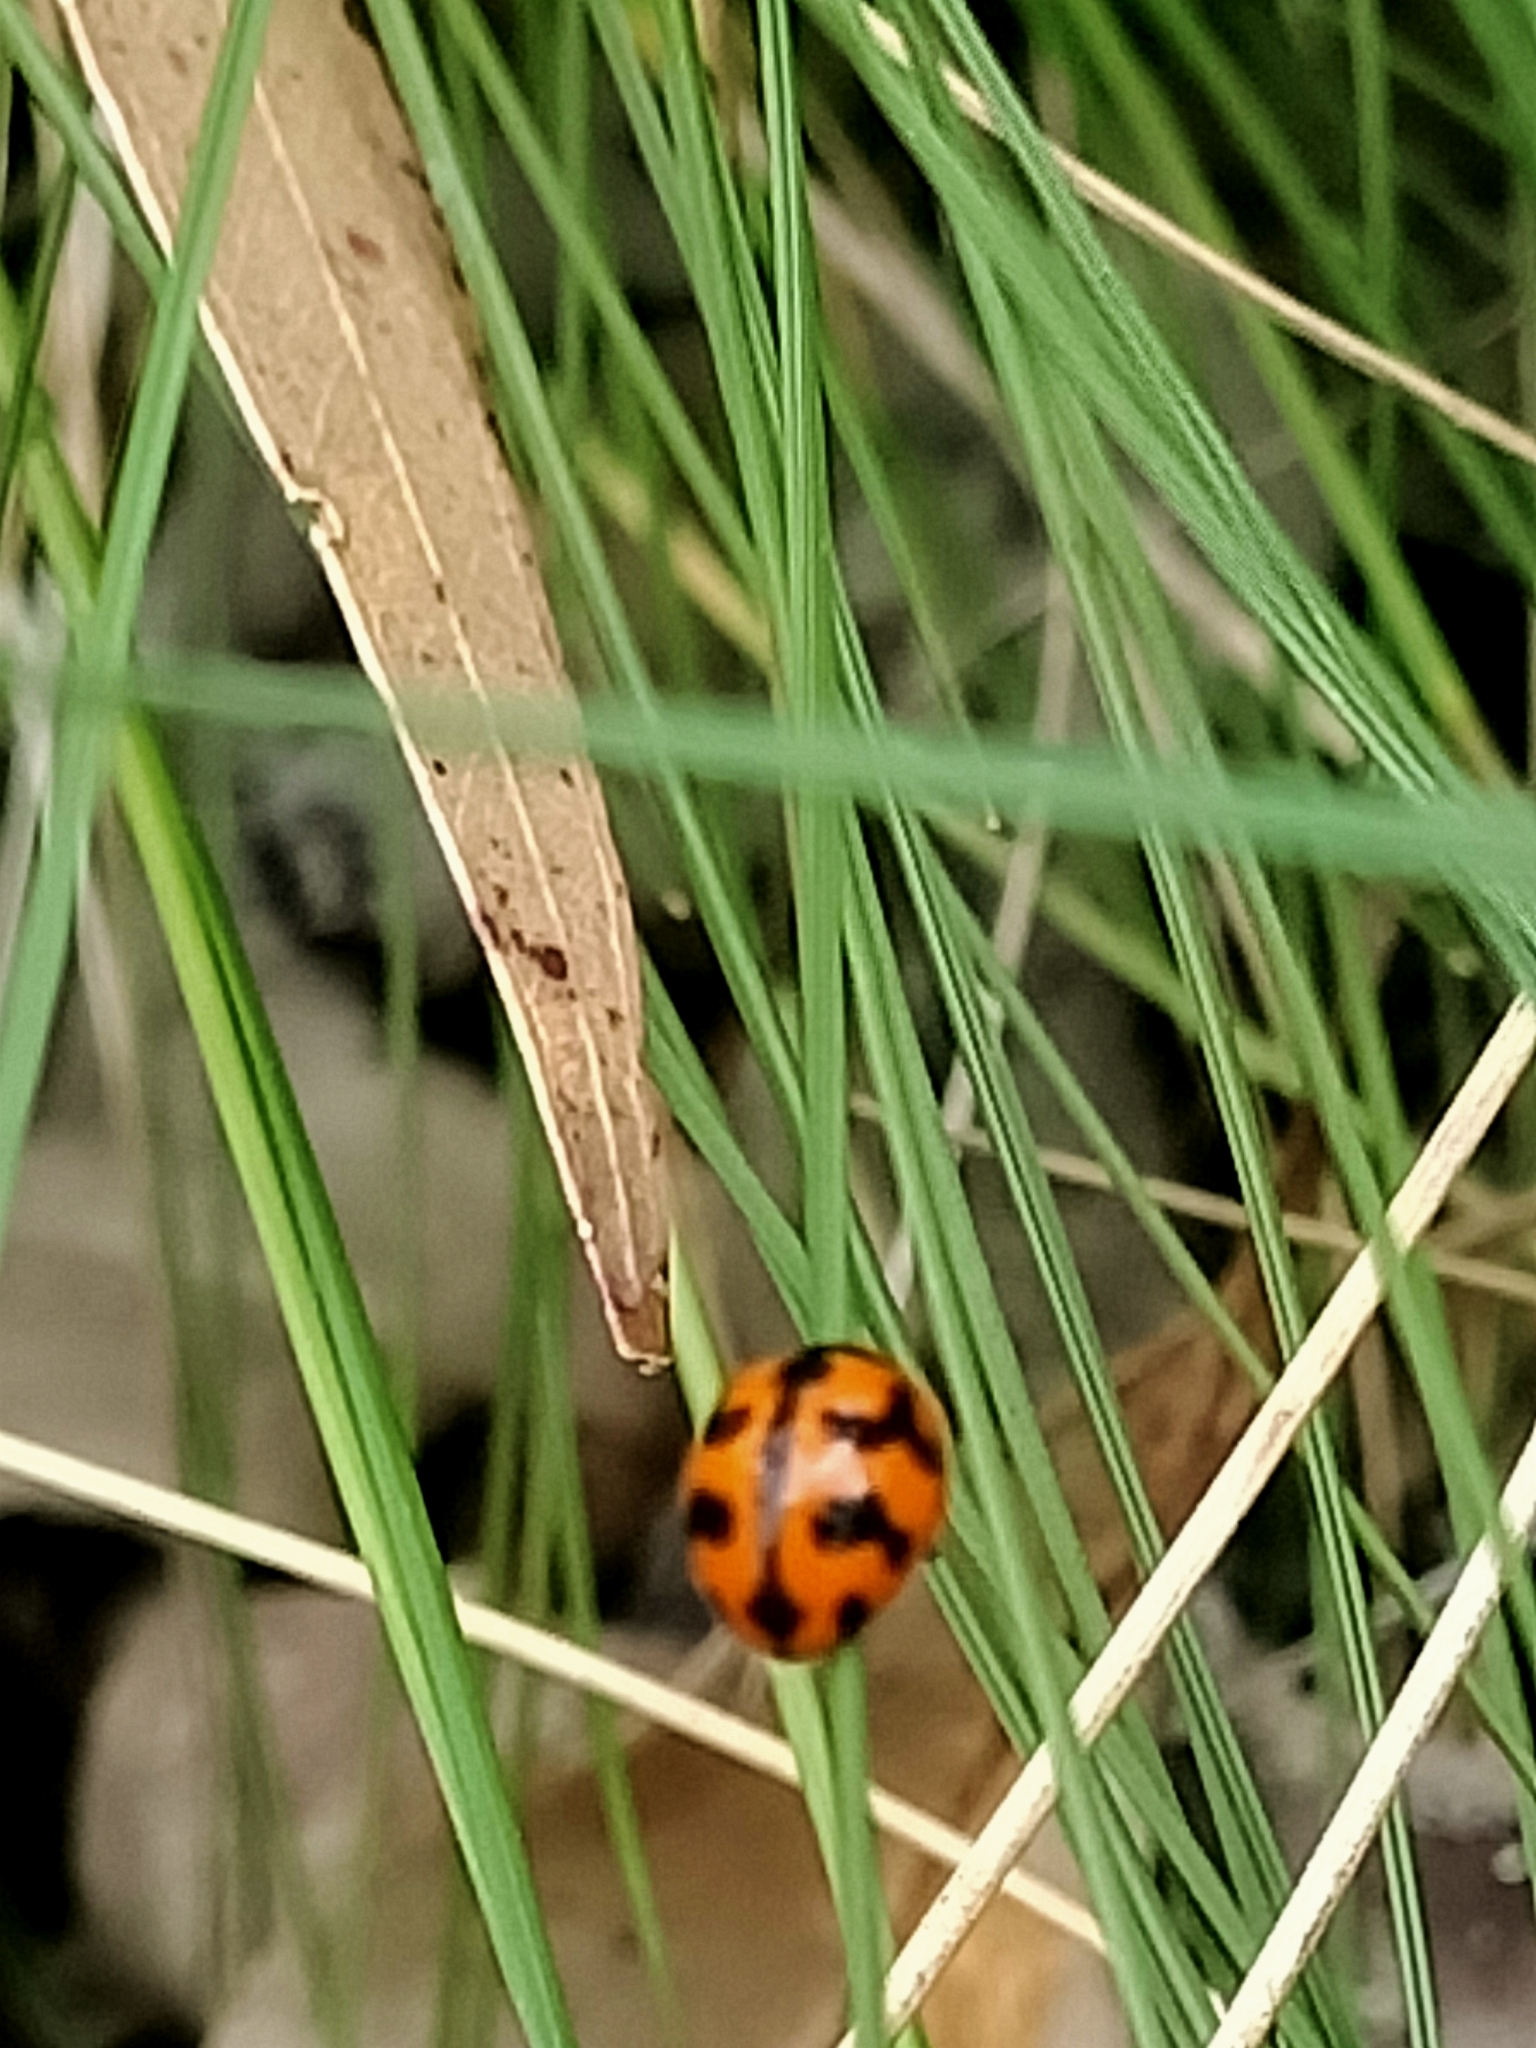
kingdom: Animalia
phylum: Arthropoda
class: Insecta
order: Coleoptera
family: Coccinellidae
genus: Coccinella
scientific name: Coccinella transversalis
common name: Transverse lady beetle
